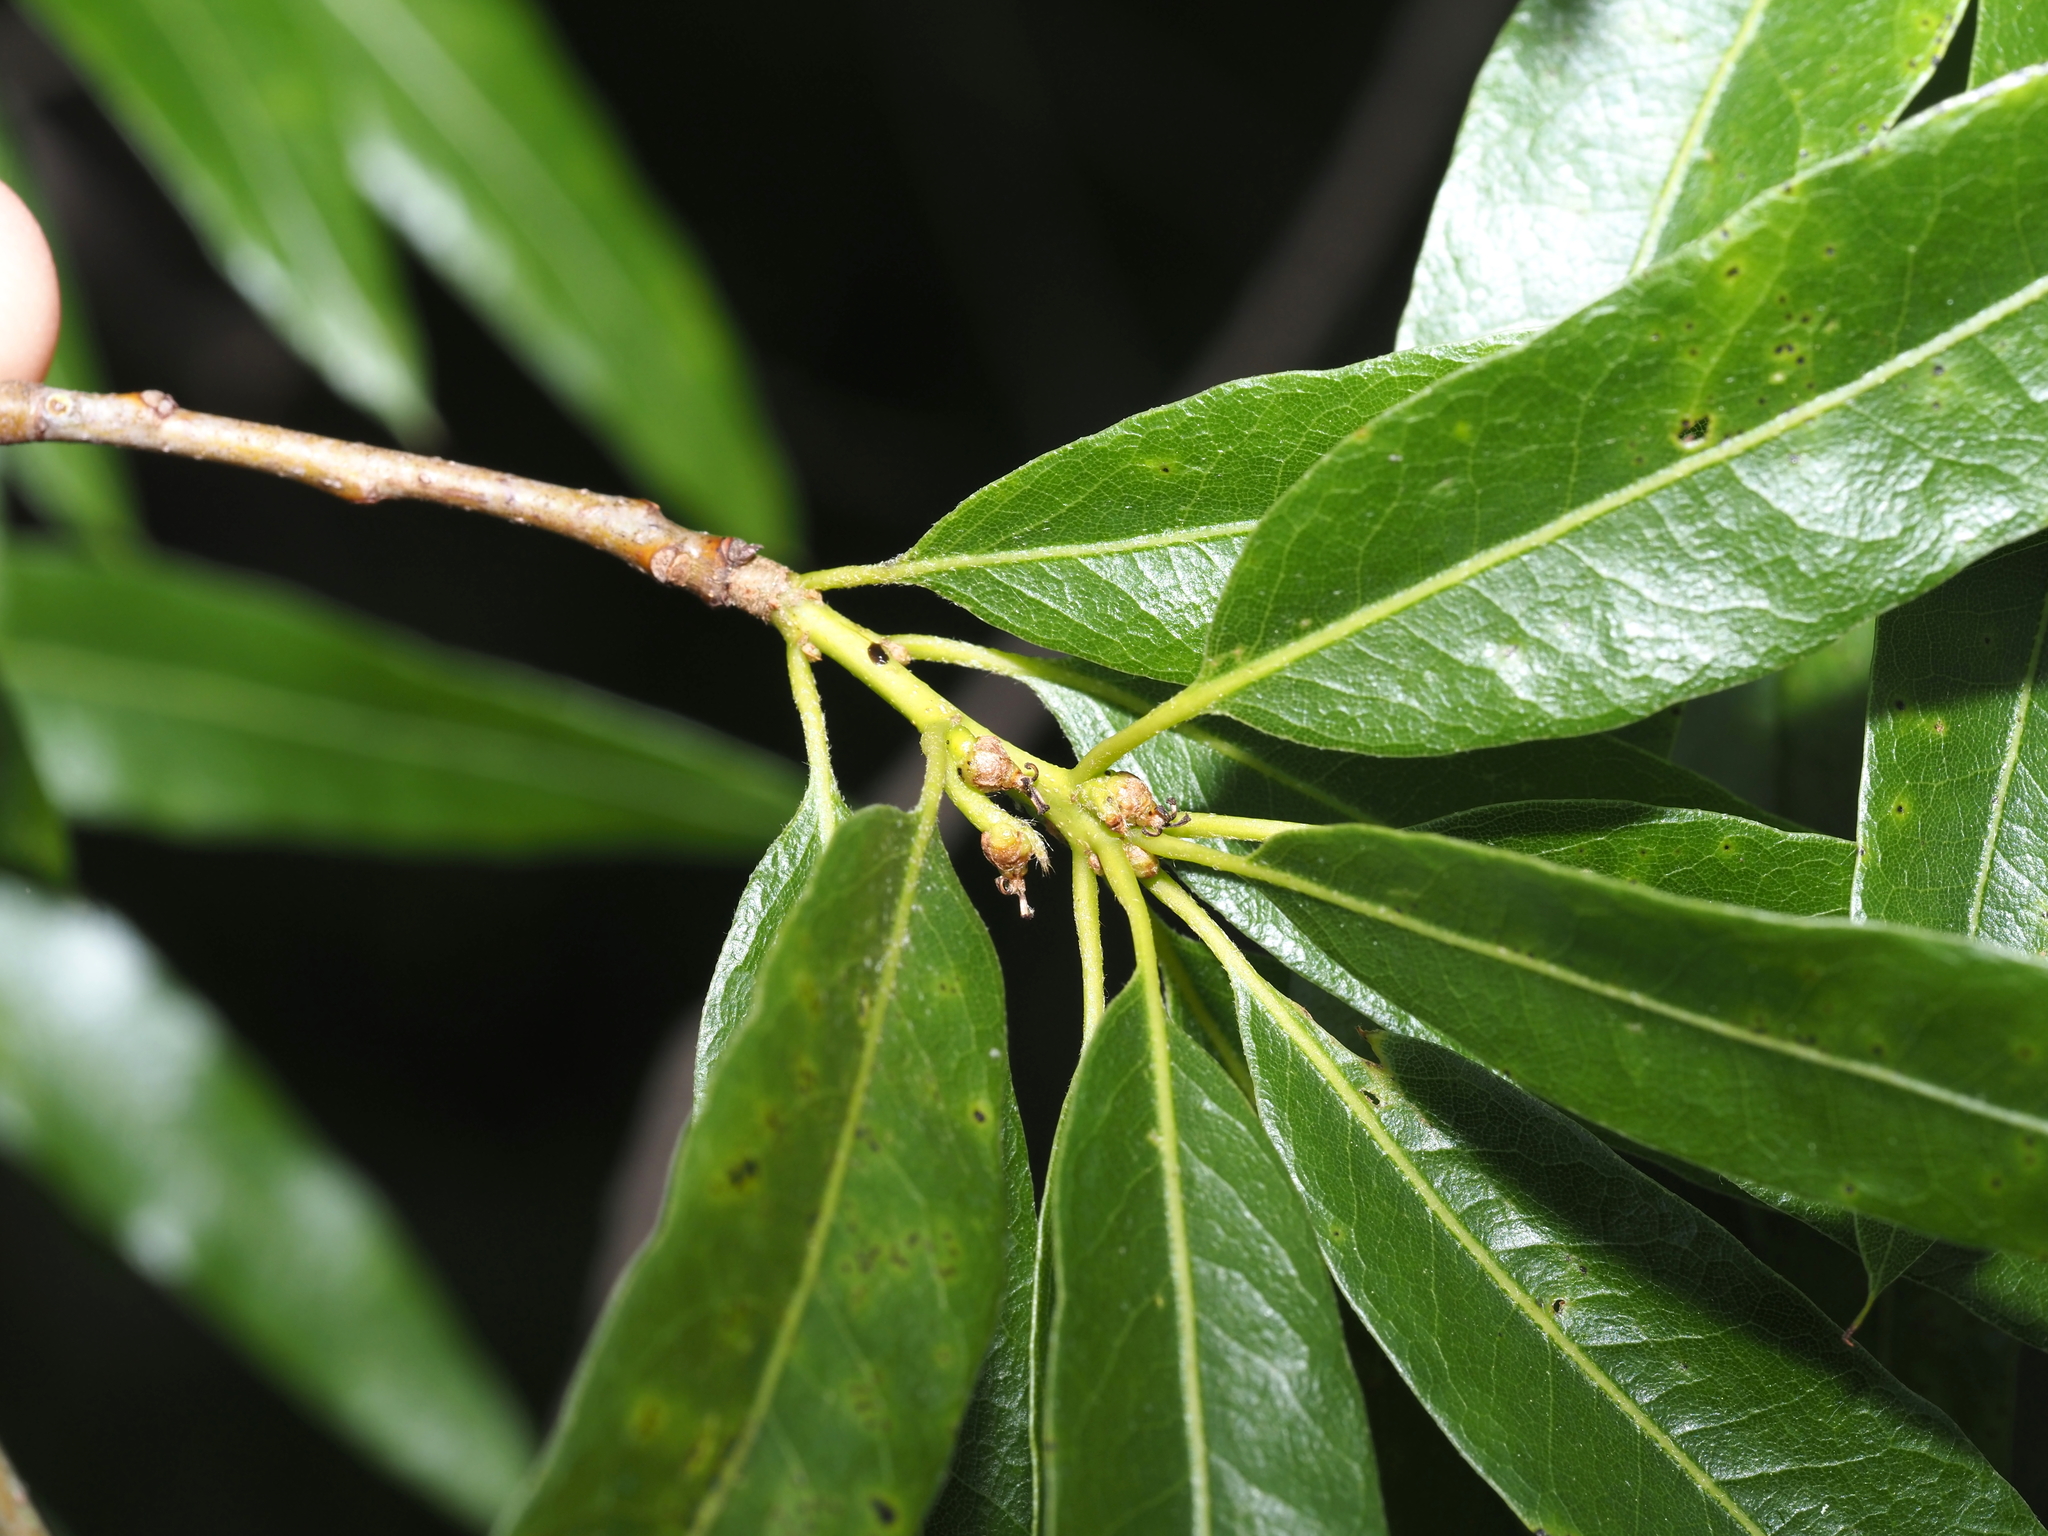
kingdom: Plantae
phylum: Tracheophyta
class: Magnoliopsida
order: Fagales
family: Fagaceae
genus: Quercus
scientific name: Quercus phellos
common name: Willow oak
